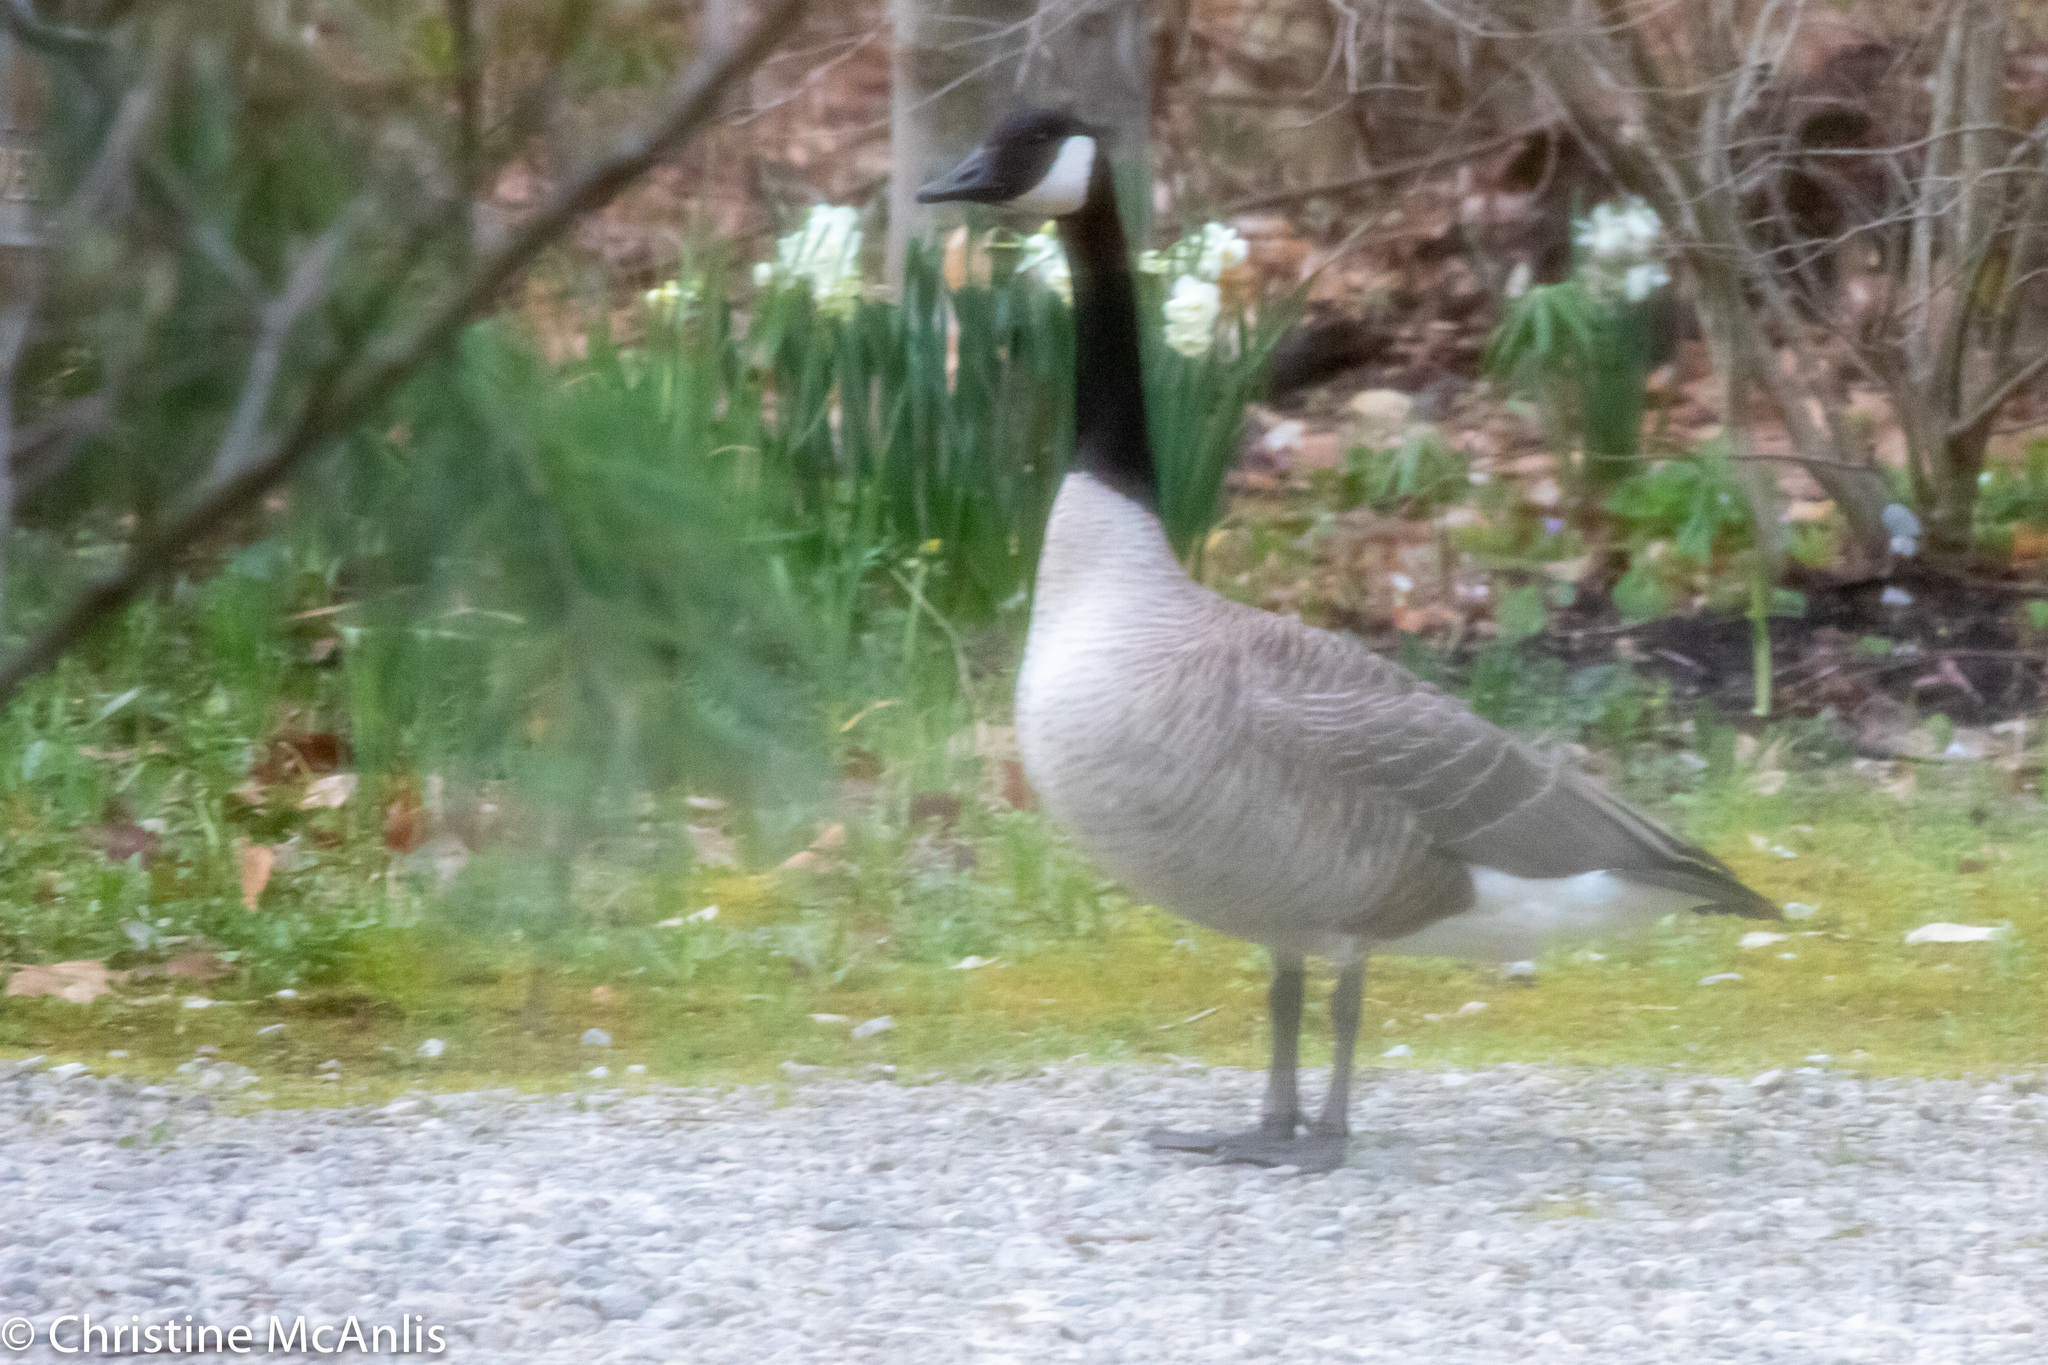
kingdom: Animalia
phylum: Chordata
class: Aves
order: Anseriformes
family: Anatidae
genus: Branta
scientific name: Branta canadensis
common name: Canada goose
